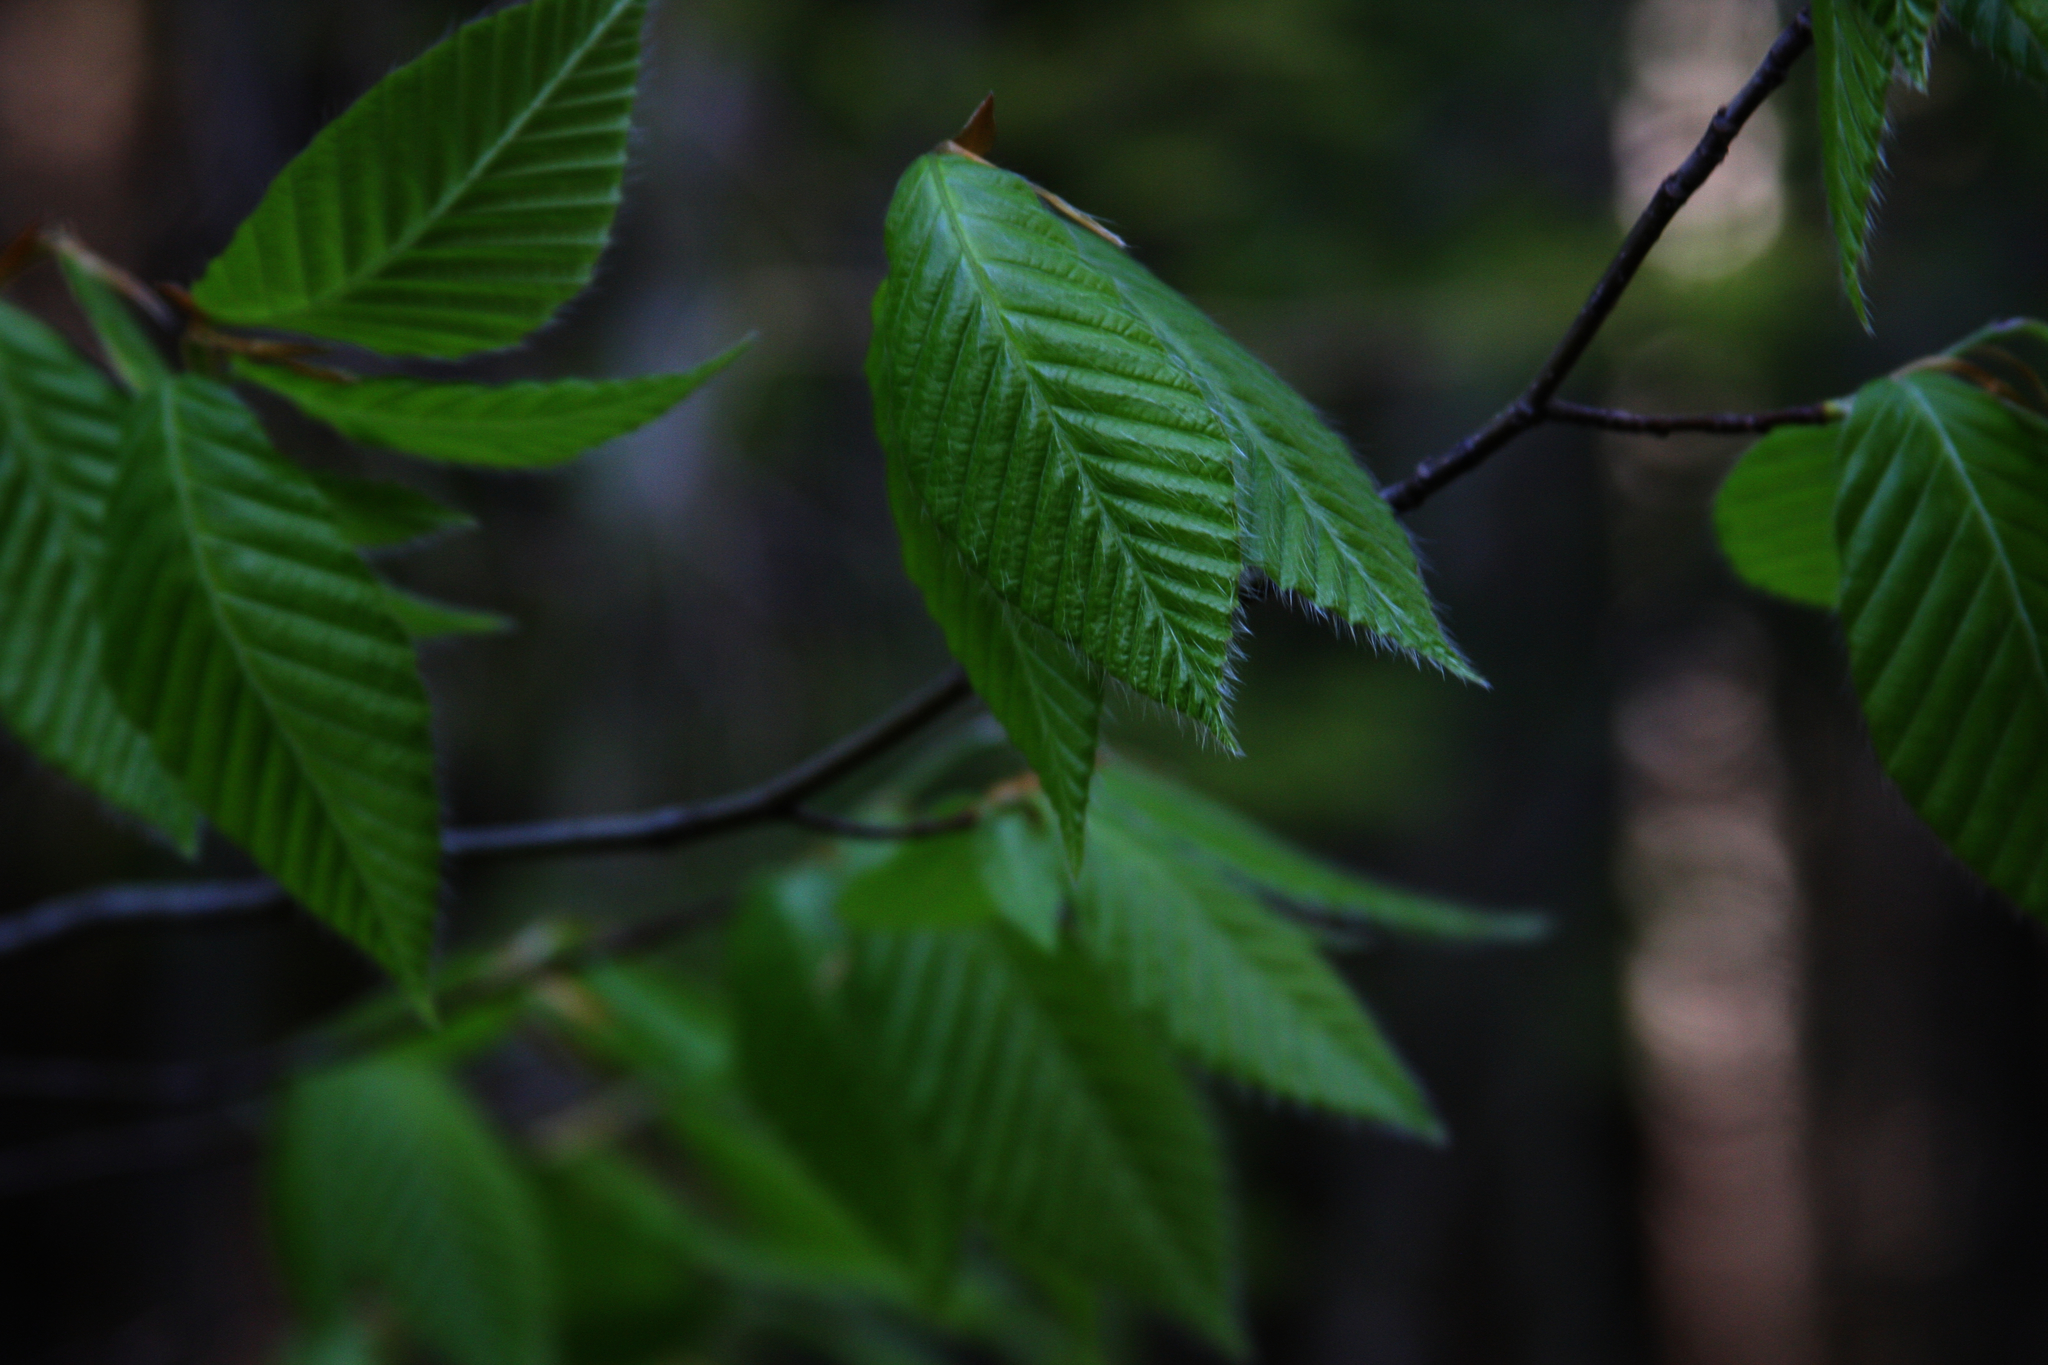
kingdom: Plantae
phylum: Tracheophyta
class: Magnoliopsida
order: Fagales
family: Fagaceae
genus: Fagus
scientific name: Fagus grandifolia
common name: American beech
